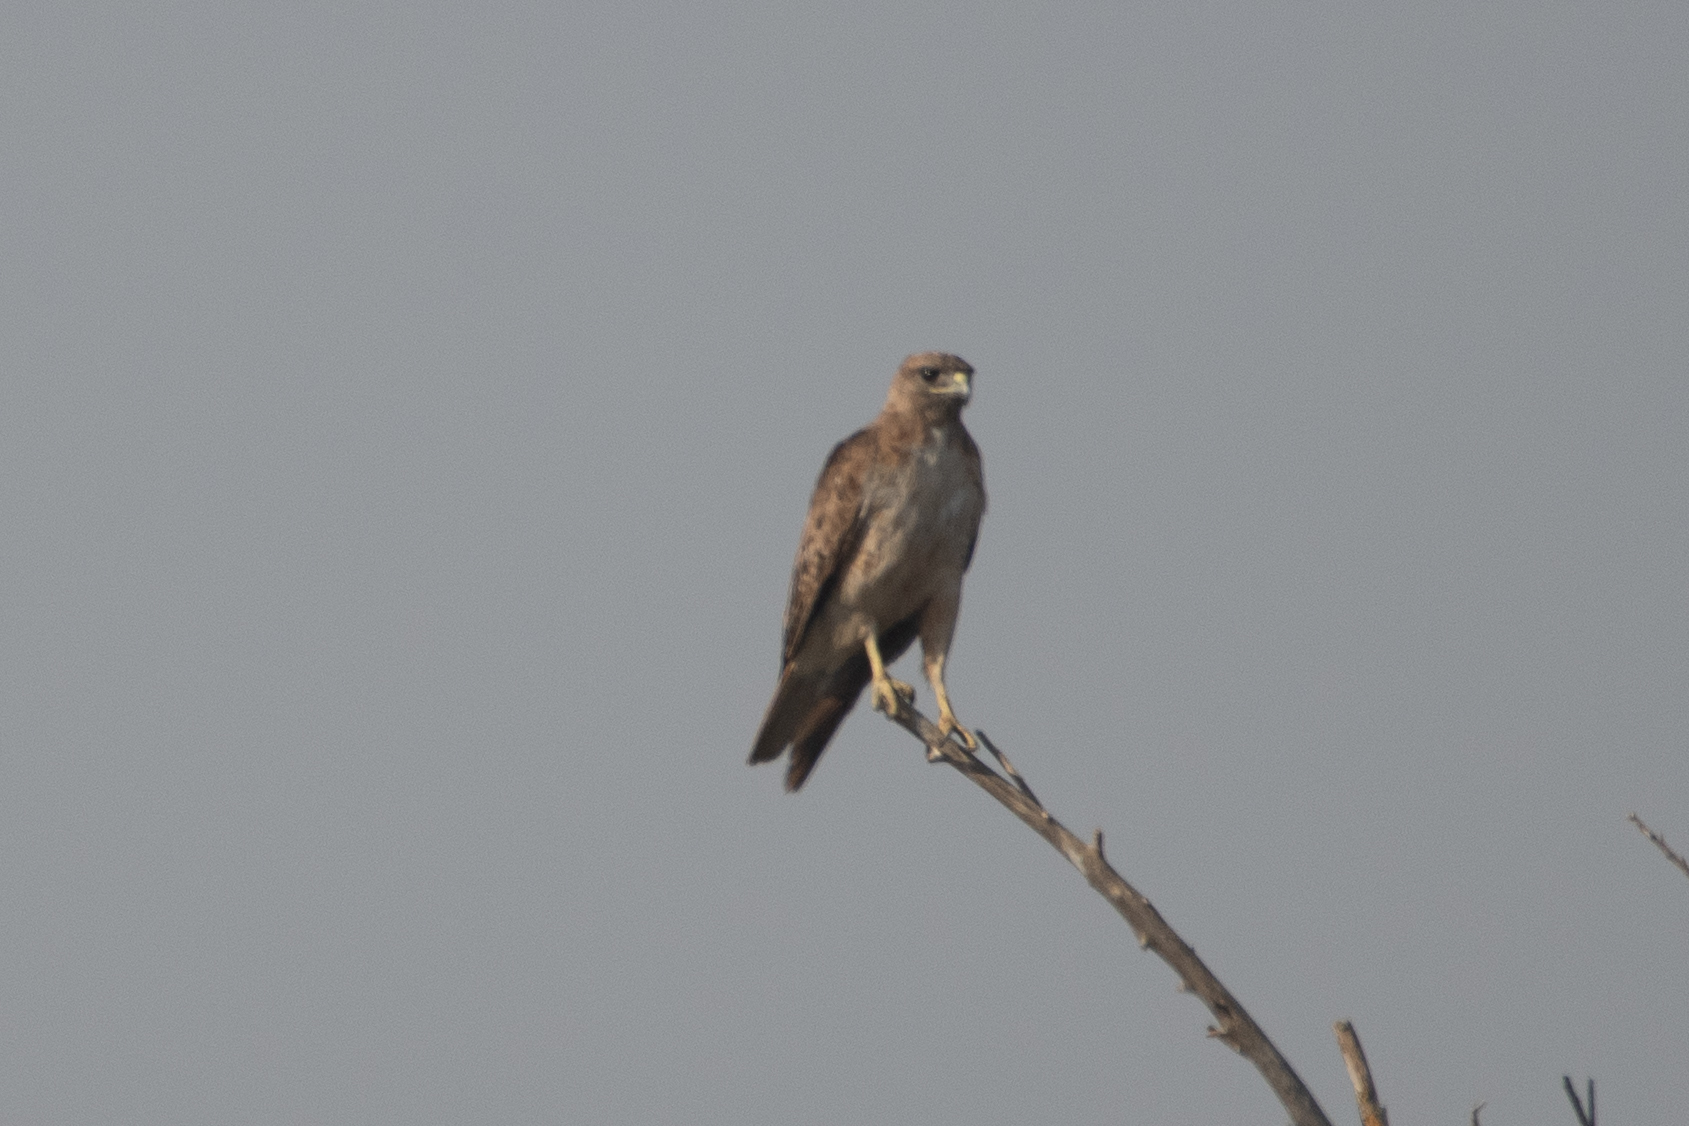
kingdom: Animalia
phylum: Chordata
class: Aves
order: Accipitriformes
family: Accipitridae
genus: Buteo
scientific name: Buteo jamaicensis
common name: Red-tailed hawk
